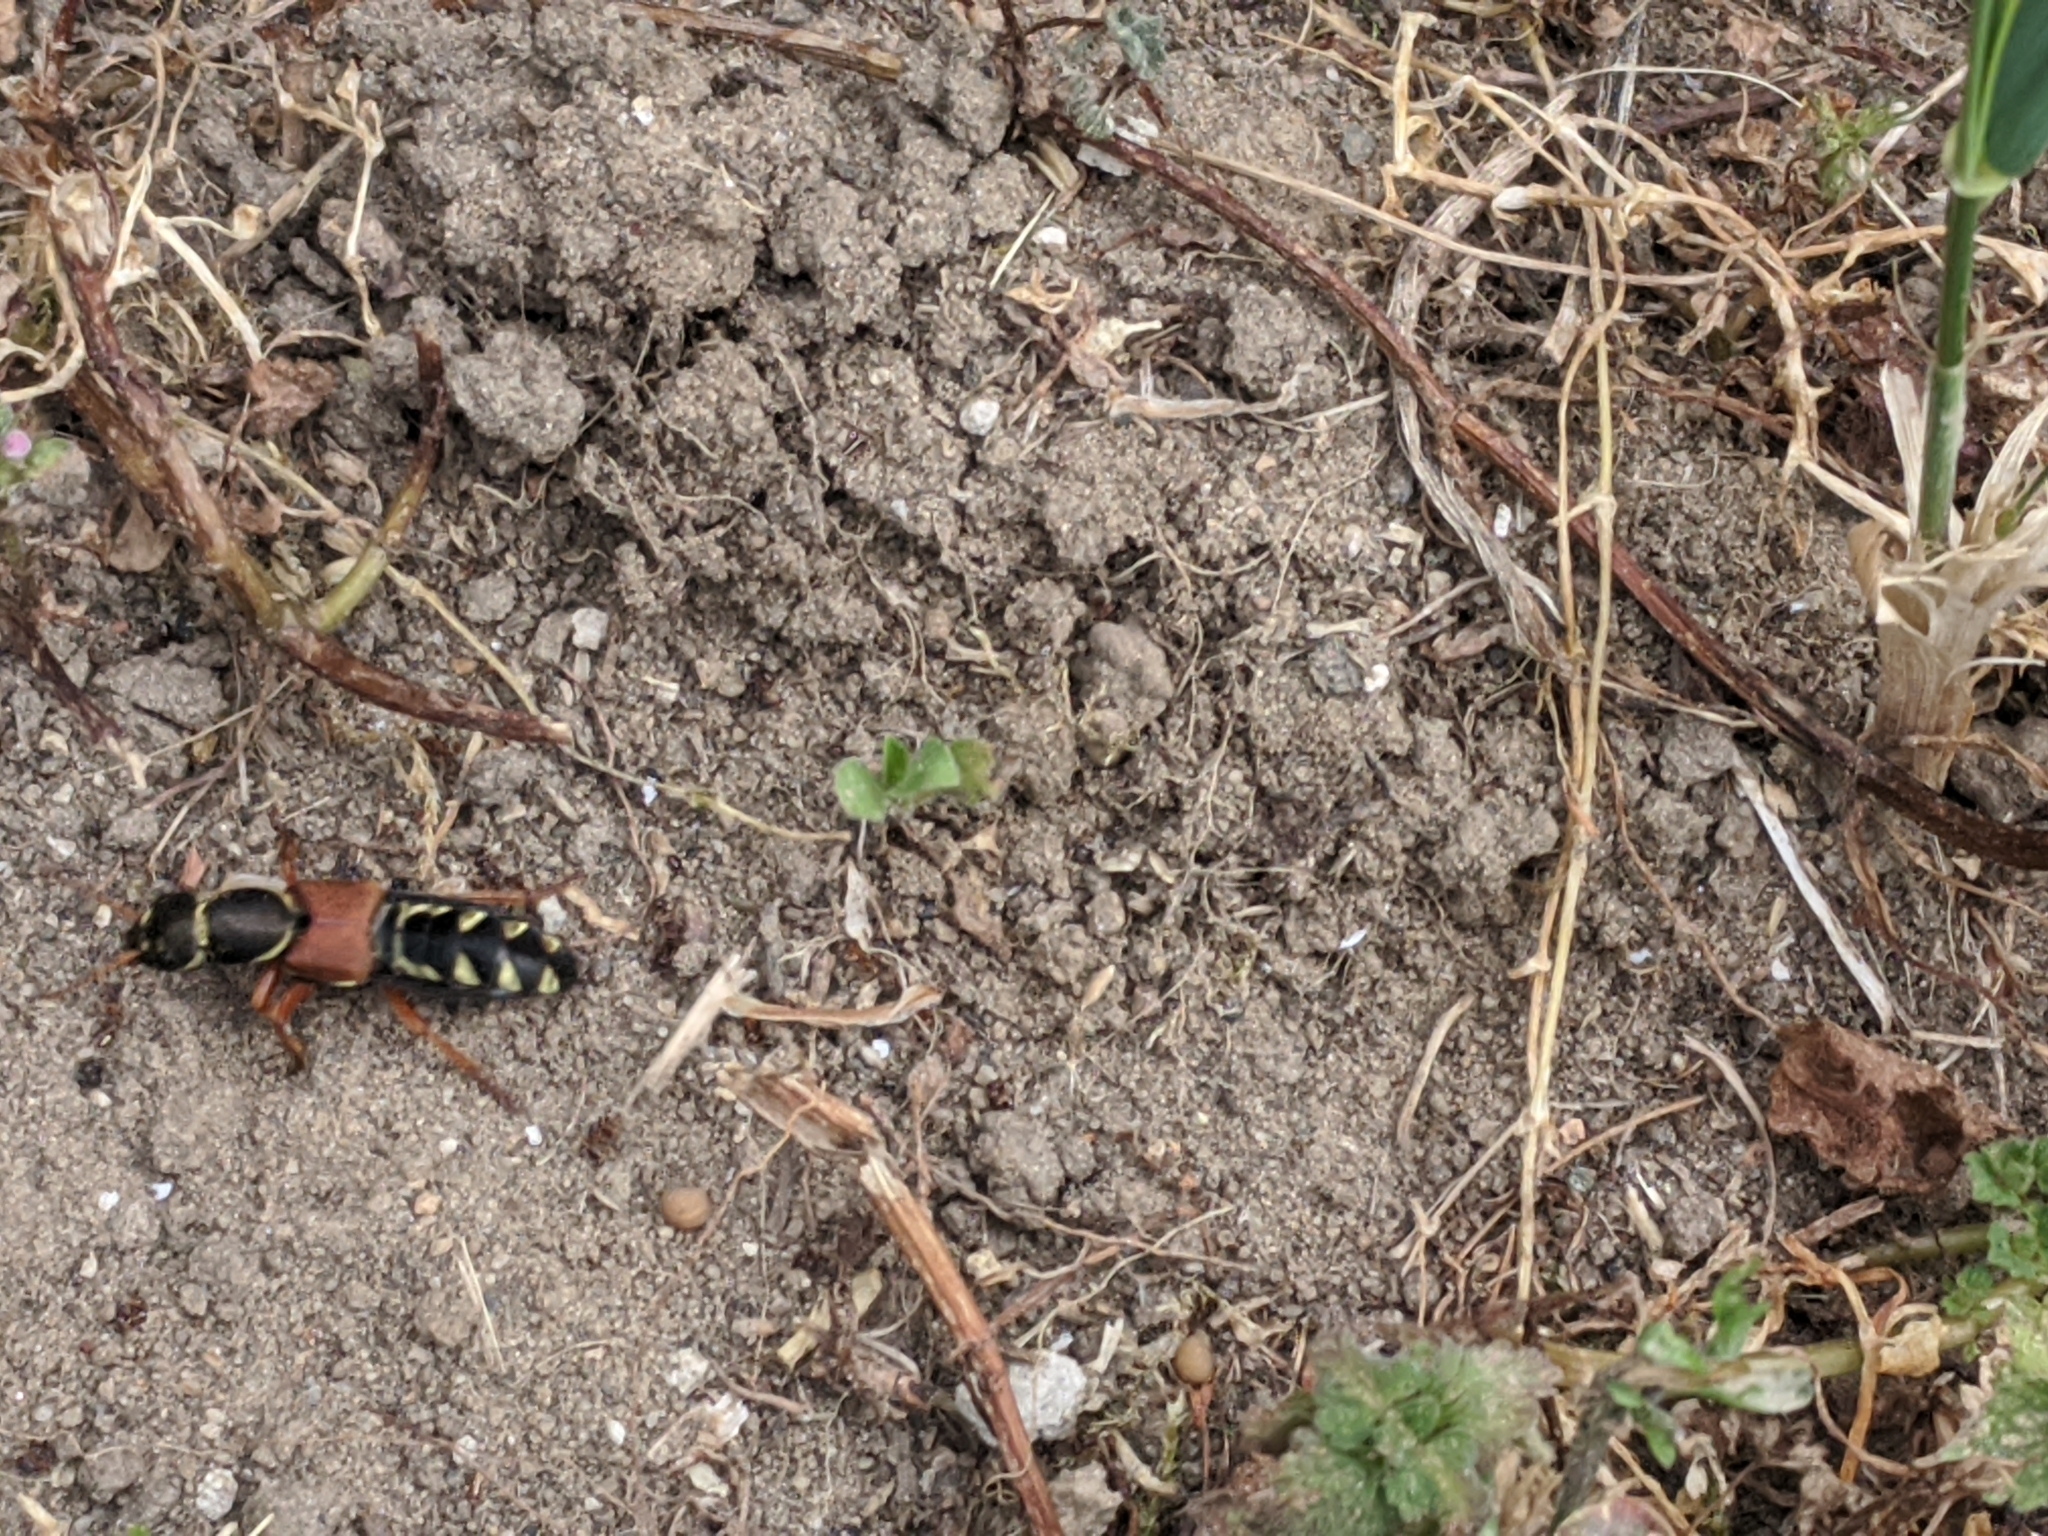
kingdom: Animalia
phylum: Arthropoda
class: Insecta
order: Coleoptera
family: Staphylinidae
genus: Staphylinus
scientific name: Staphylinus caesareus
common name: Staph beetle
